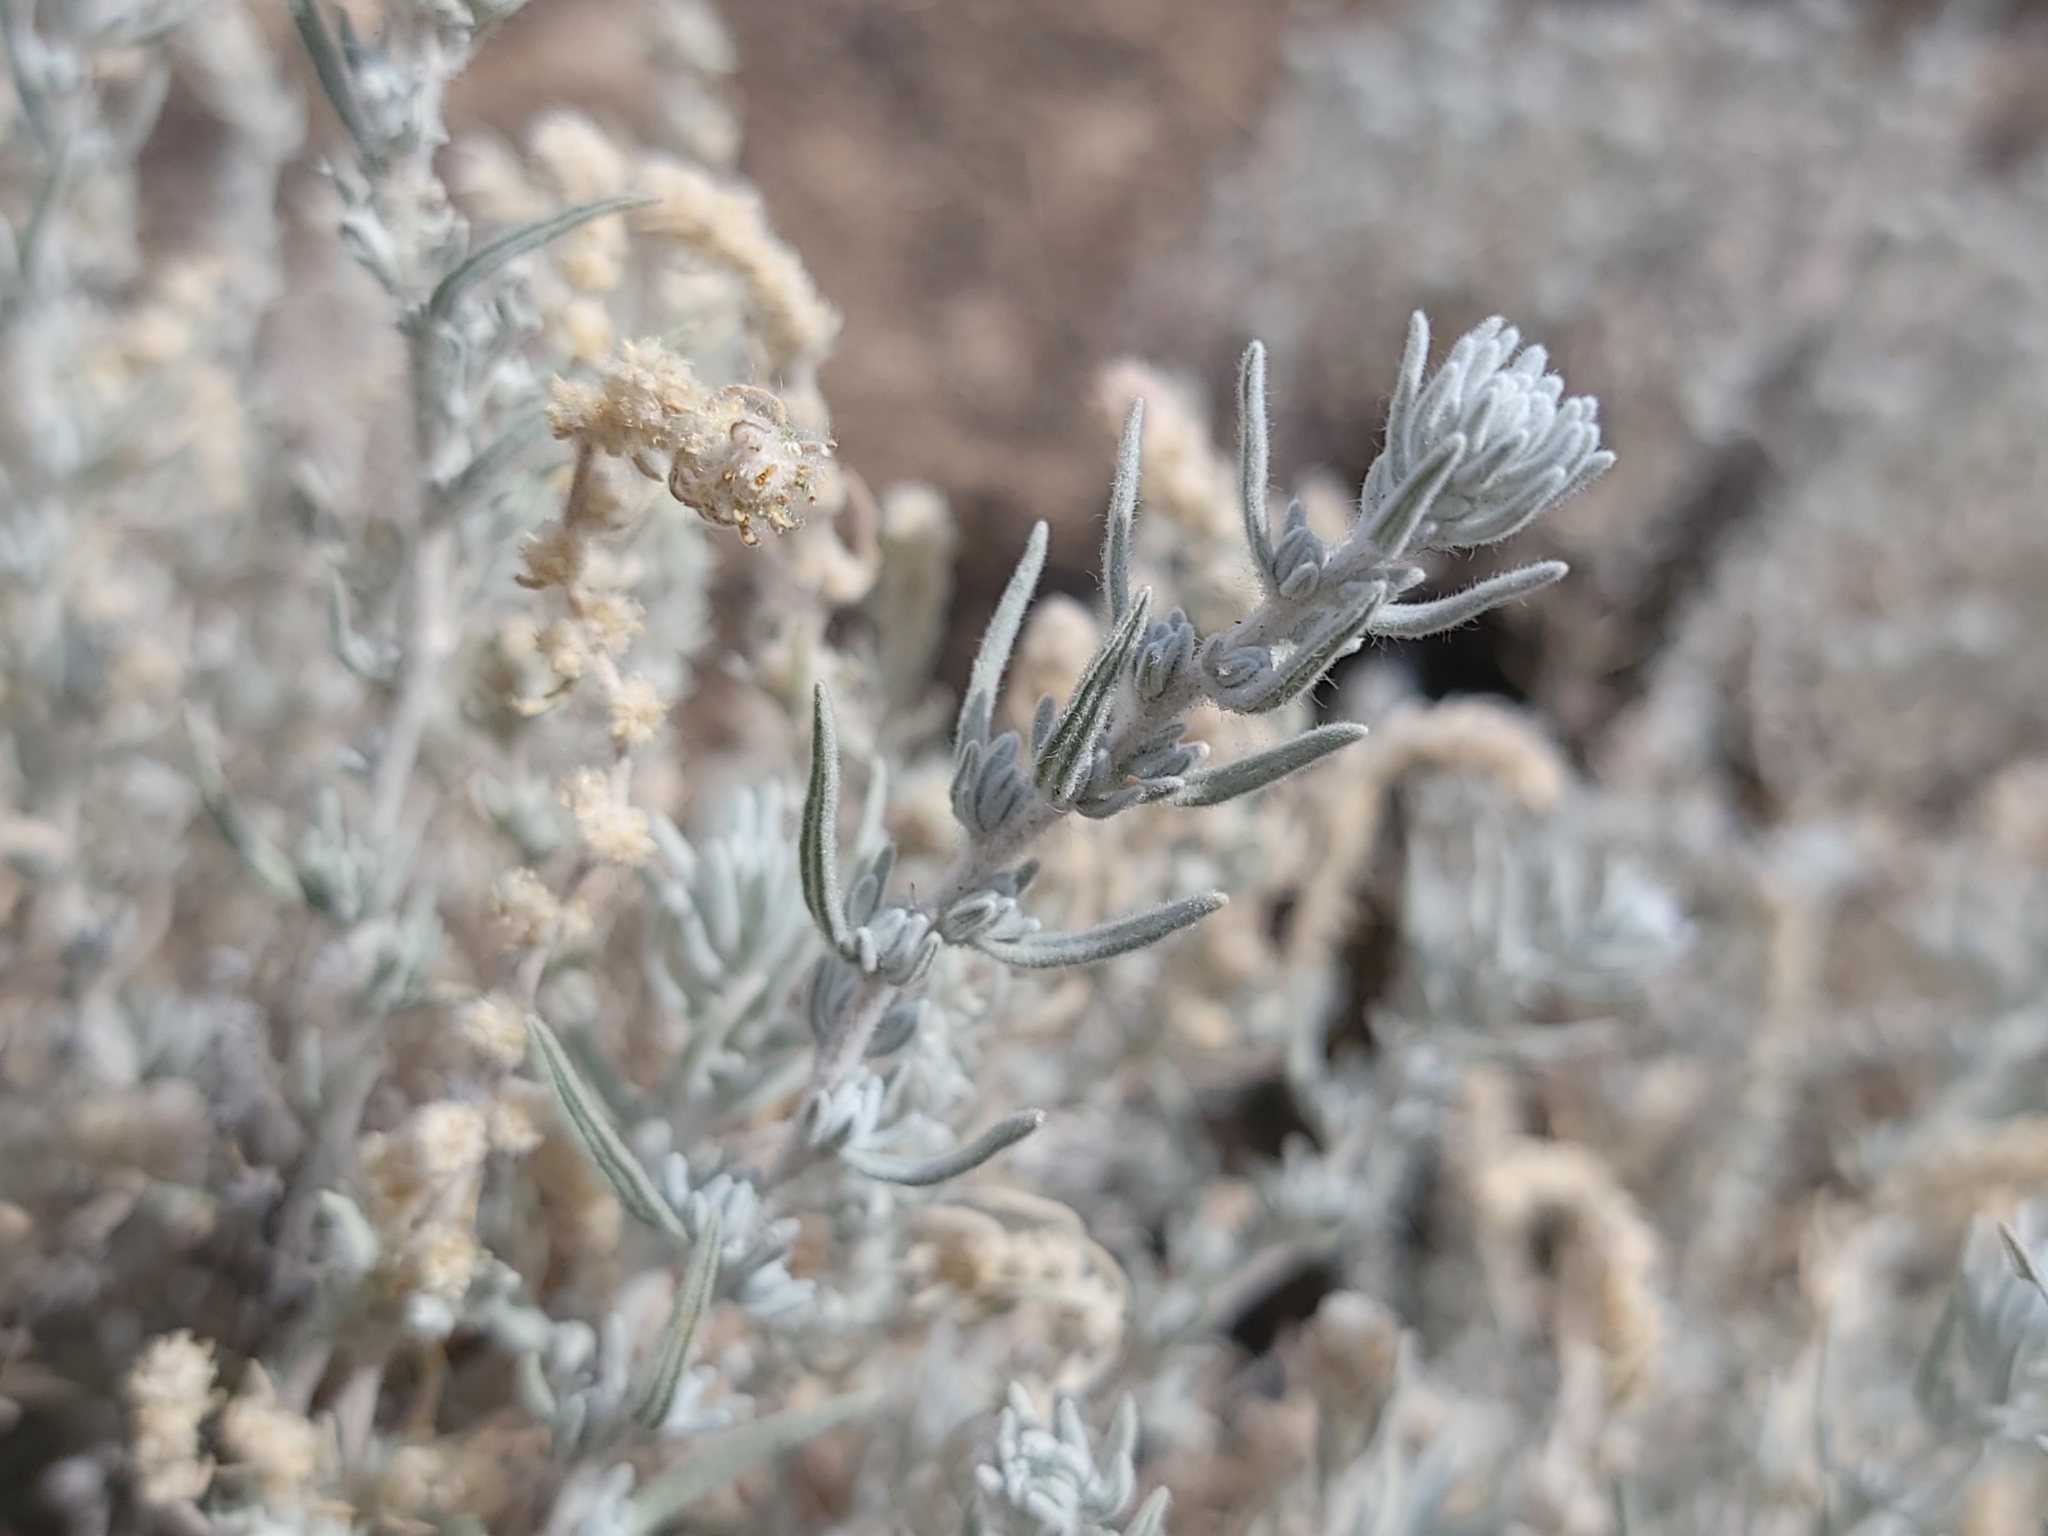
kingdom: Plantae
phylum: Tracheophyta
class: Magnoliopsida
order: Caryophyllales
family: Amaranthaceae
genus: Krascheninnikovia
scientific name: Krascheninnikovia lanata
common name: Winterfat
